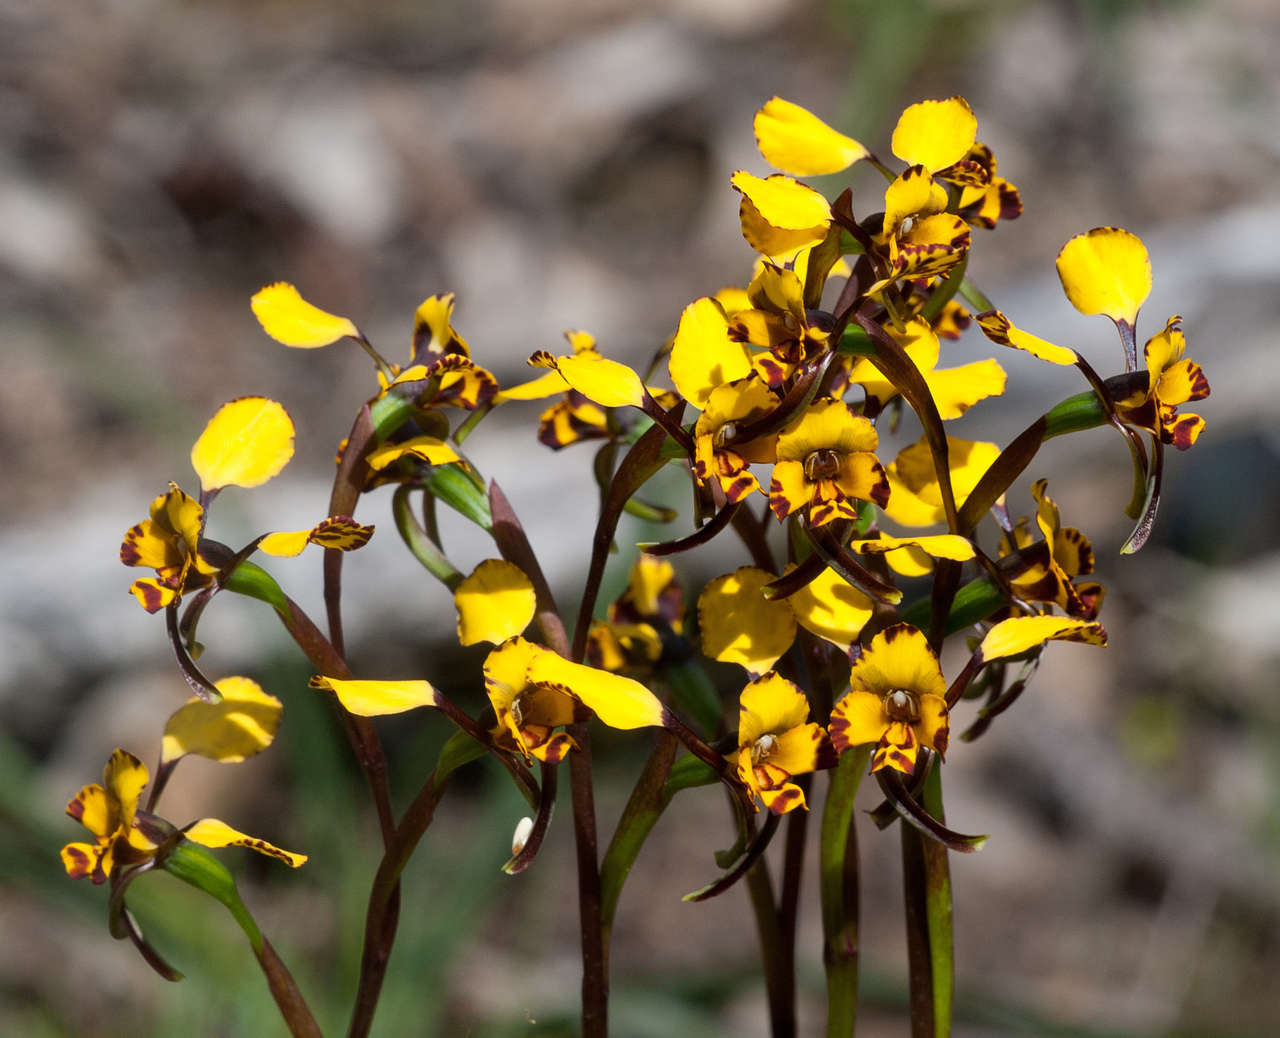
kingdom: Plantae
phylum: Tracheophyta
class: Liliopsida
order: Asparagales
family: Orchidaceae
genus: Diuris
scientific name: Diuris pardina
